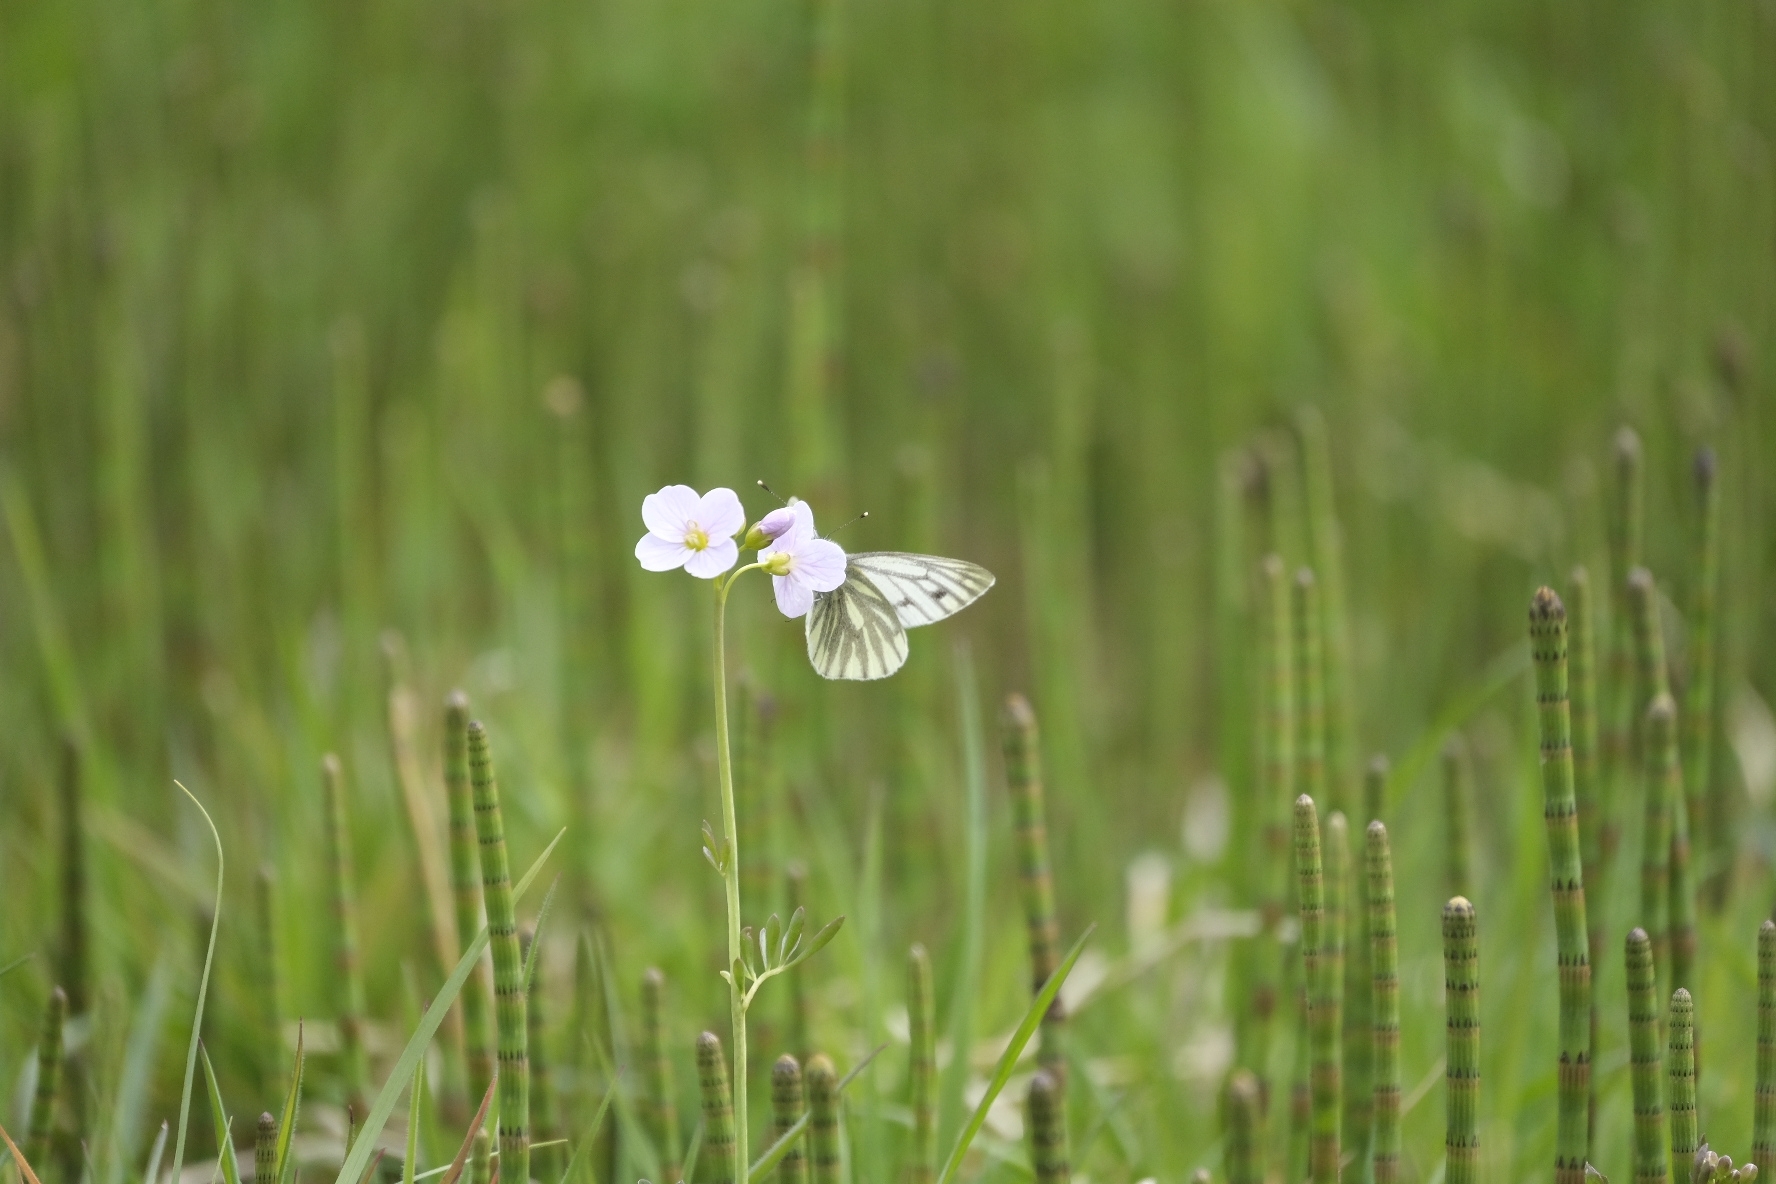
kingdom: Animalia
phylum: Arthropoda
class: Insecta
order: Lepidoptera
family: Pieridae
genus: Pieris
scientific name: Pieris napi
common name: Green-veined white
